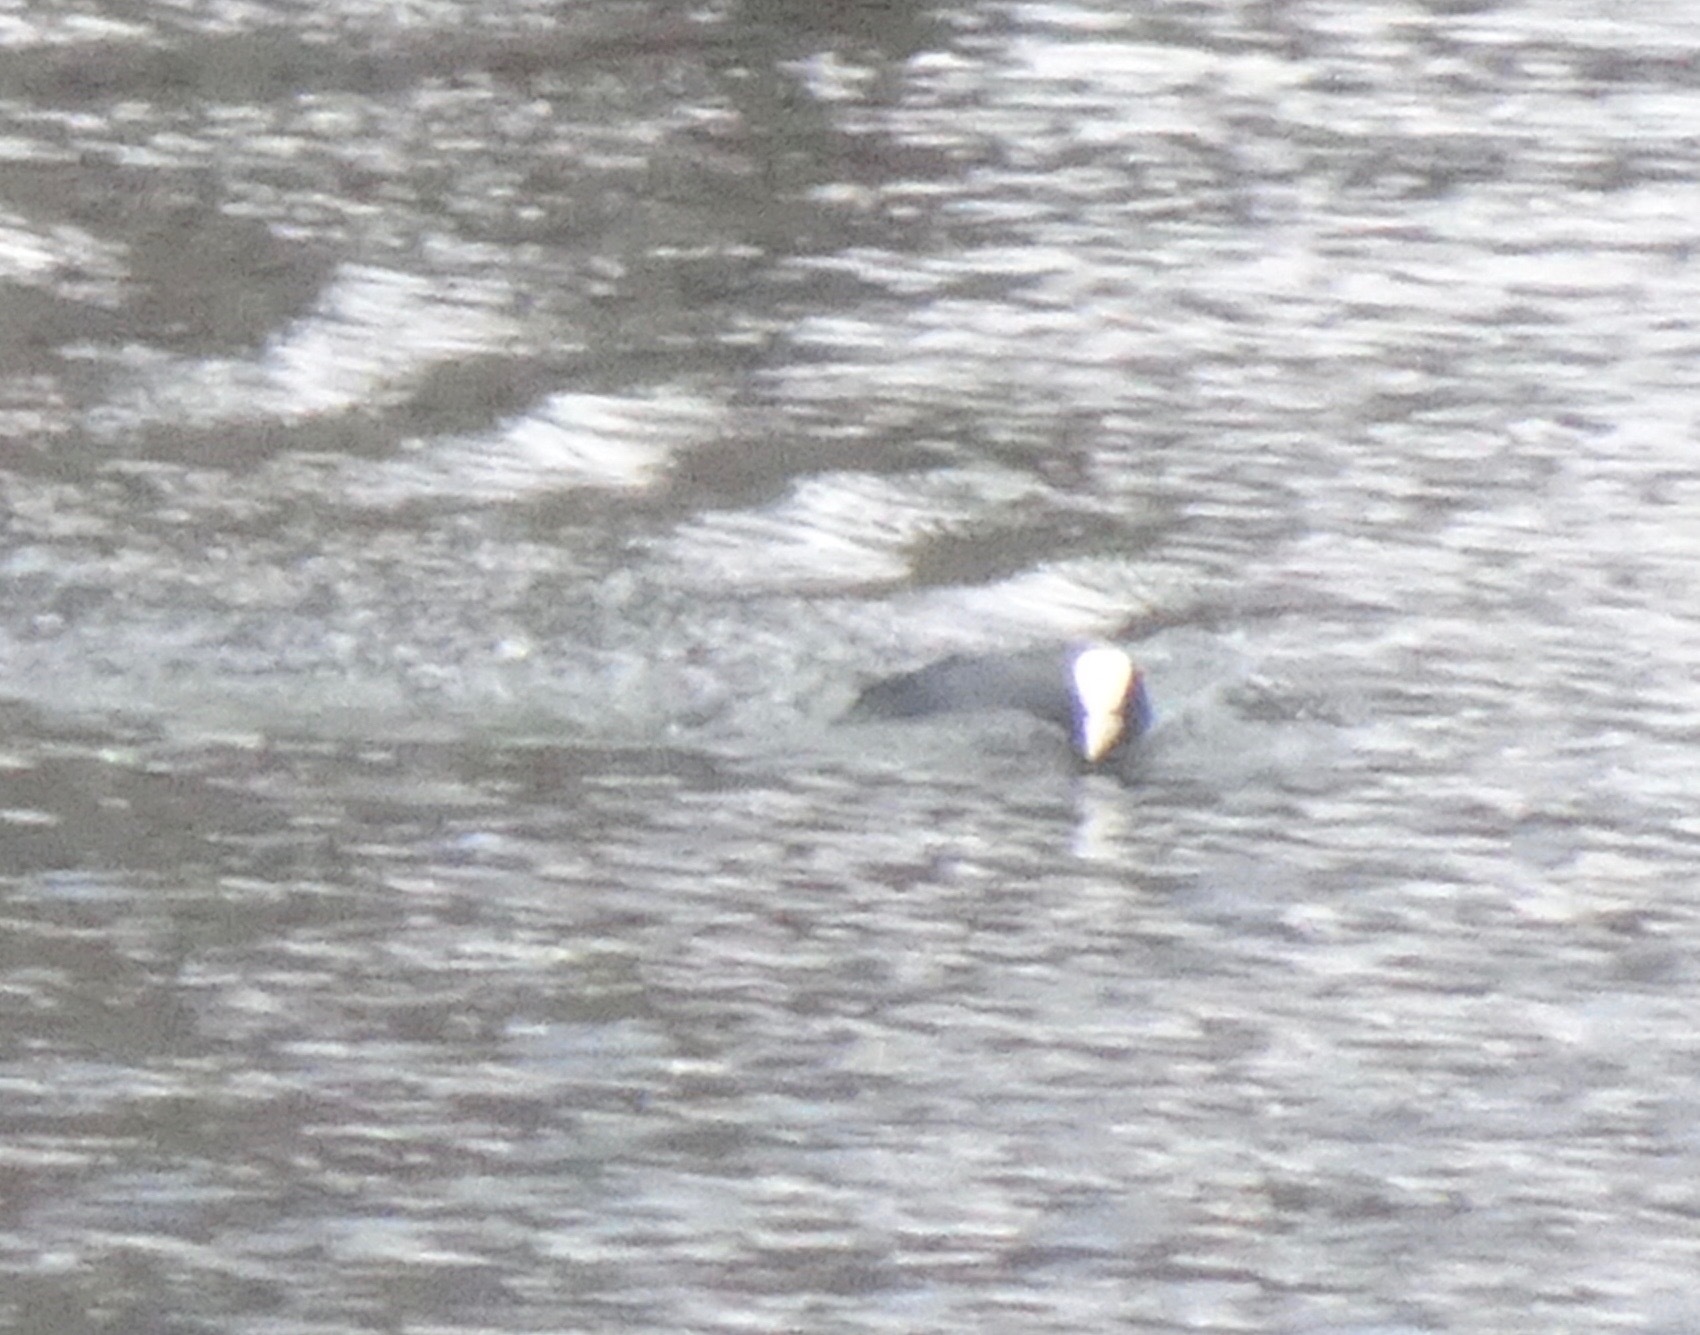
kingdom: Animalia
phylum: Chordata
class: Aves
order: Gruiformes
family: Rallidae
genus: Fulica
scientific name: Fulica atra
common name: Eurasian coot
